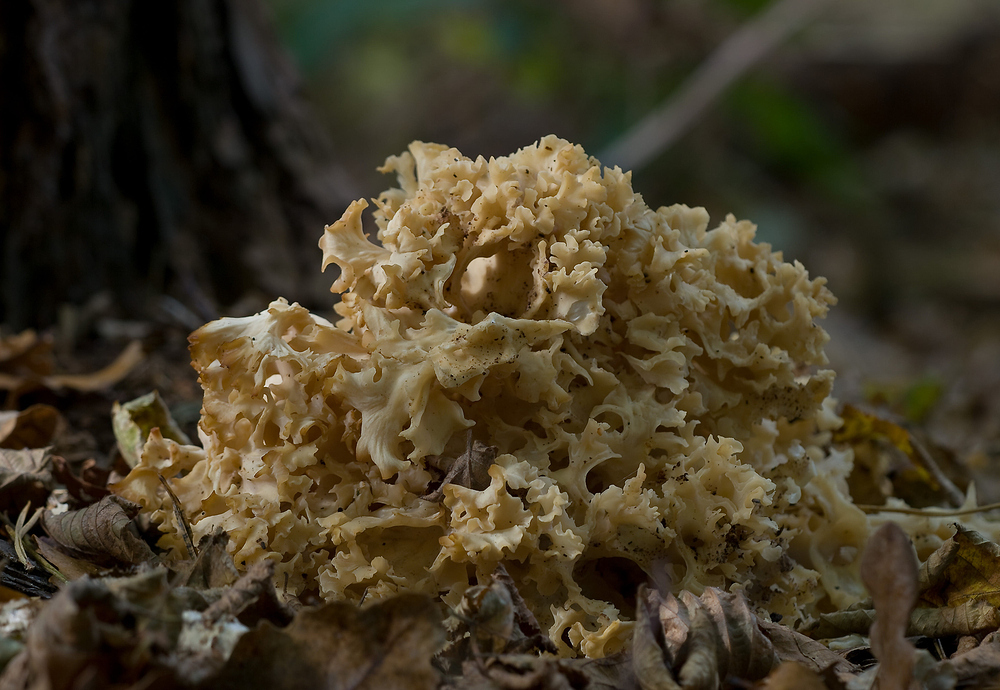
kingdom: Fungi
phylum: Basidiomycota
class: Agaricomycetes
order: Polyporales
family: Sparassidaceae
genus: Sparassis
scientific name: Sparassis crispa
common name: Brain fungus
